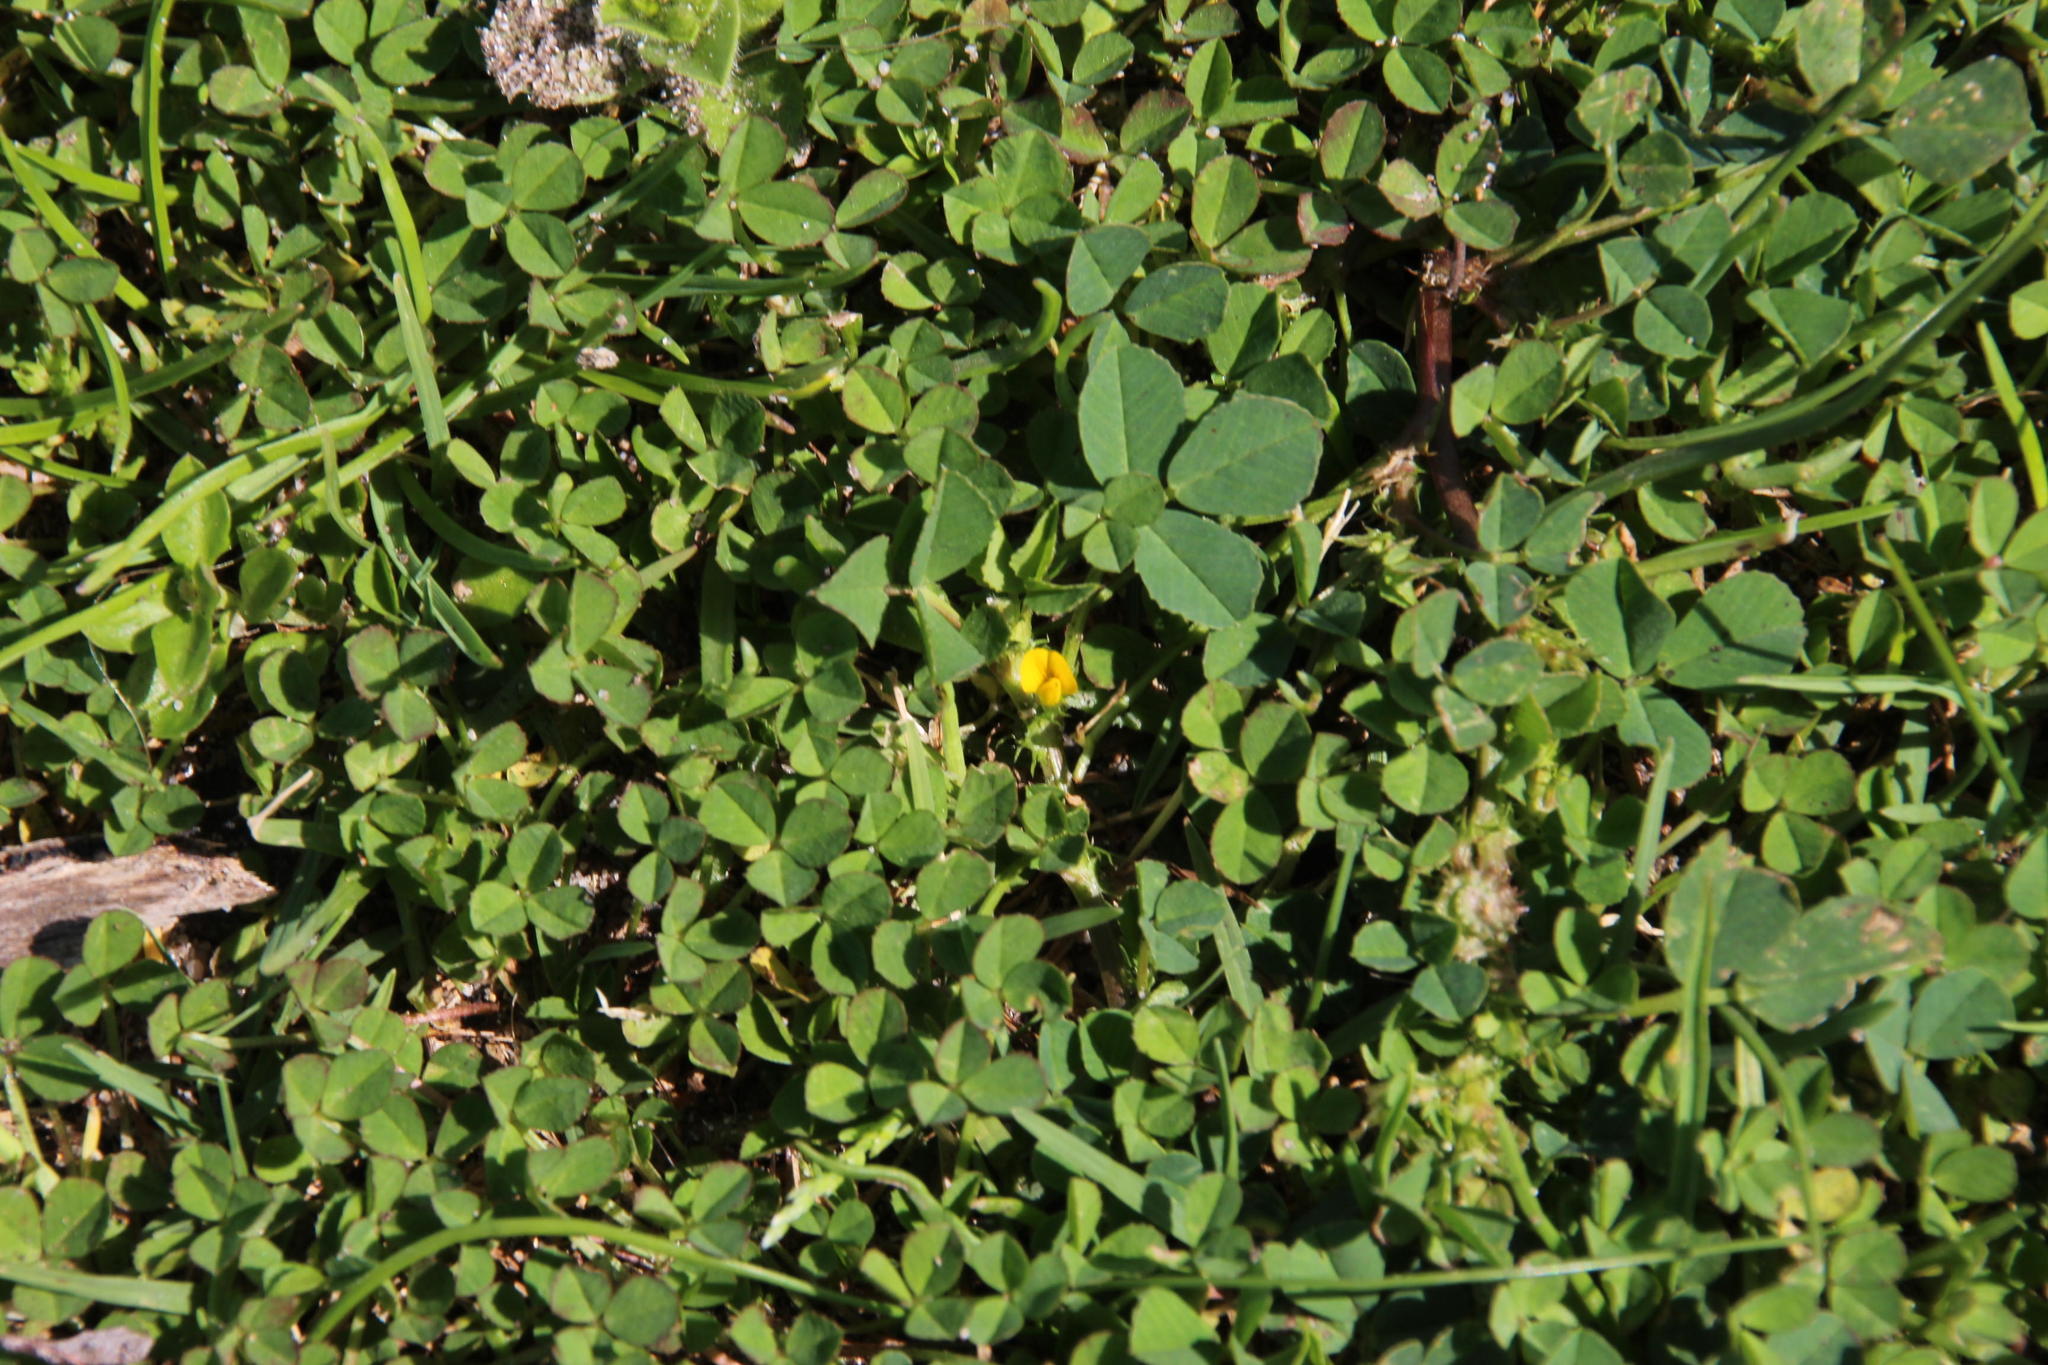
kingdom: Plantae
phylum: Tracheophyta
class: Magnoliopsida
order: Fabales
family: Fabaceae
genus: Medicago
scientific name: Medicago polymorpha
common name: Burclover
